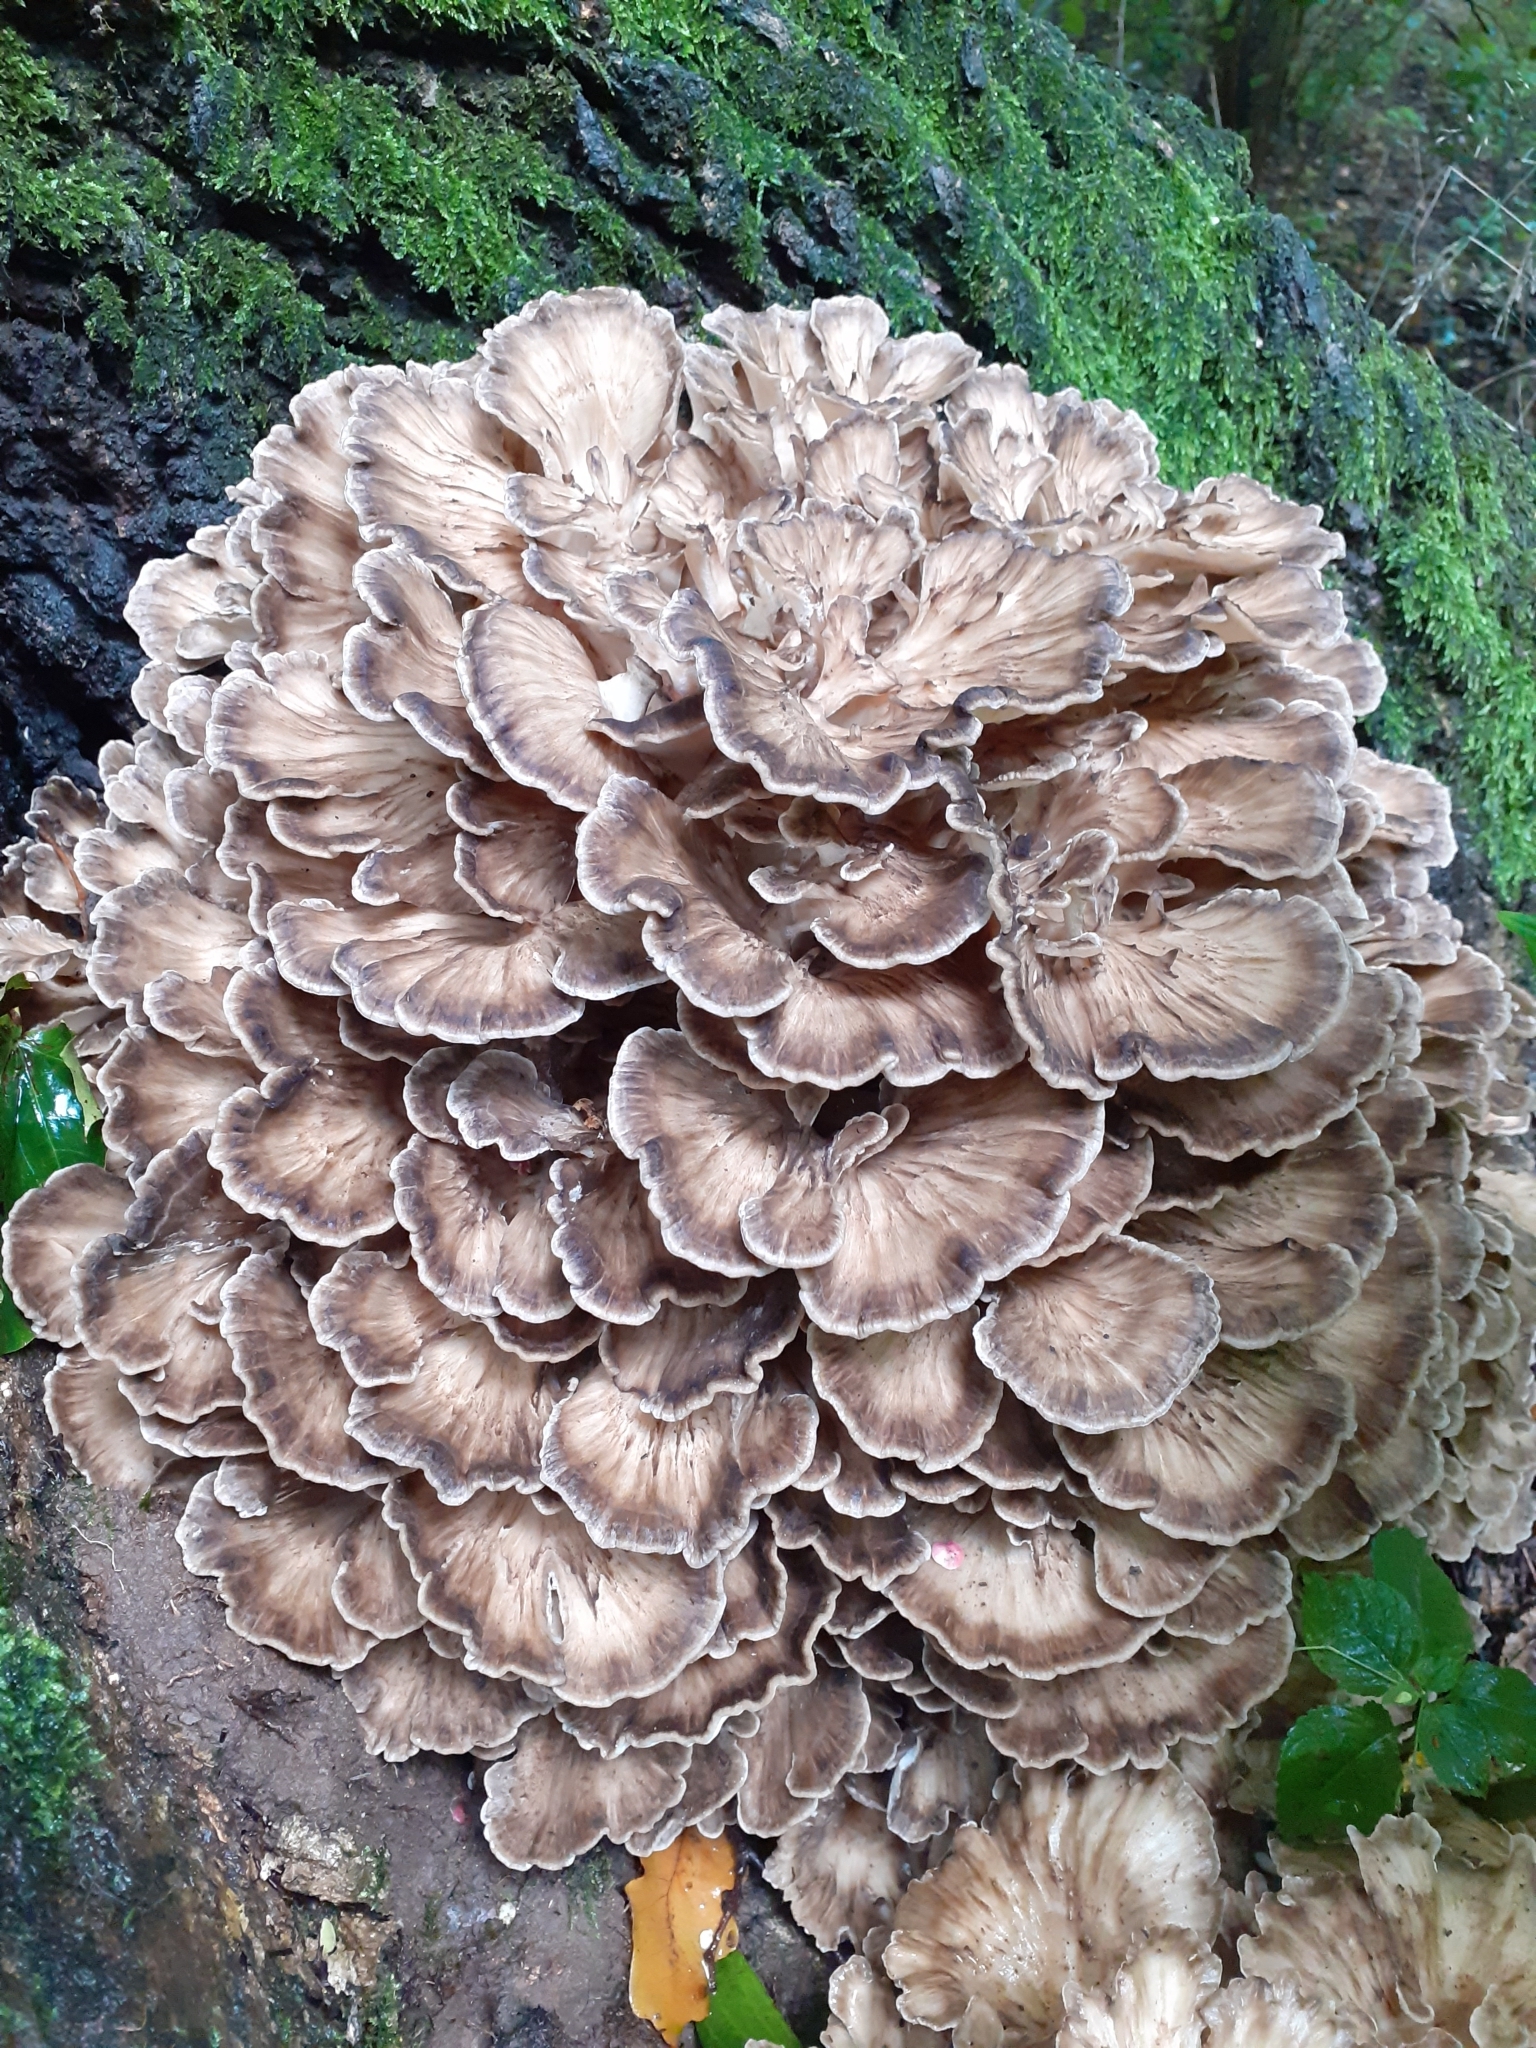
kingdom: Fungi
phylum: Basidiomycota
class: Agaricomycetes
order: Polyporales
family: Grifolaceae
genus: Grifola
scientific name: Grifola frondosa
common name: Hen of the woods
